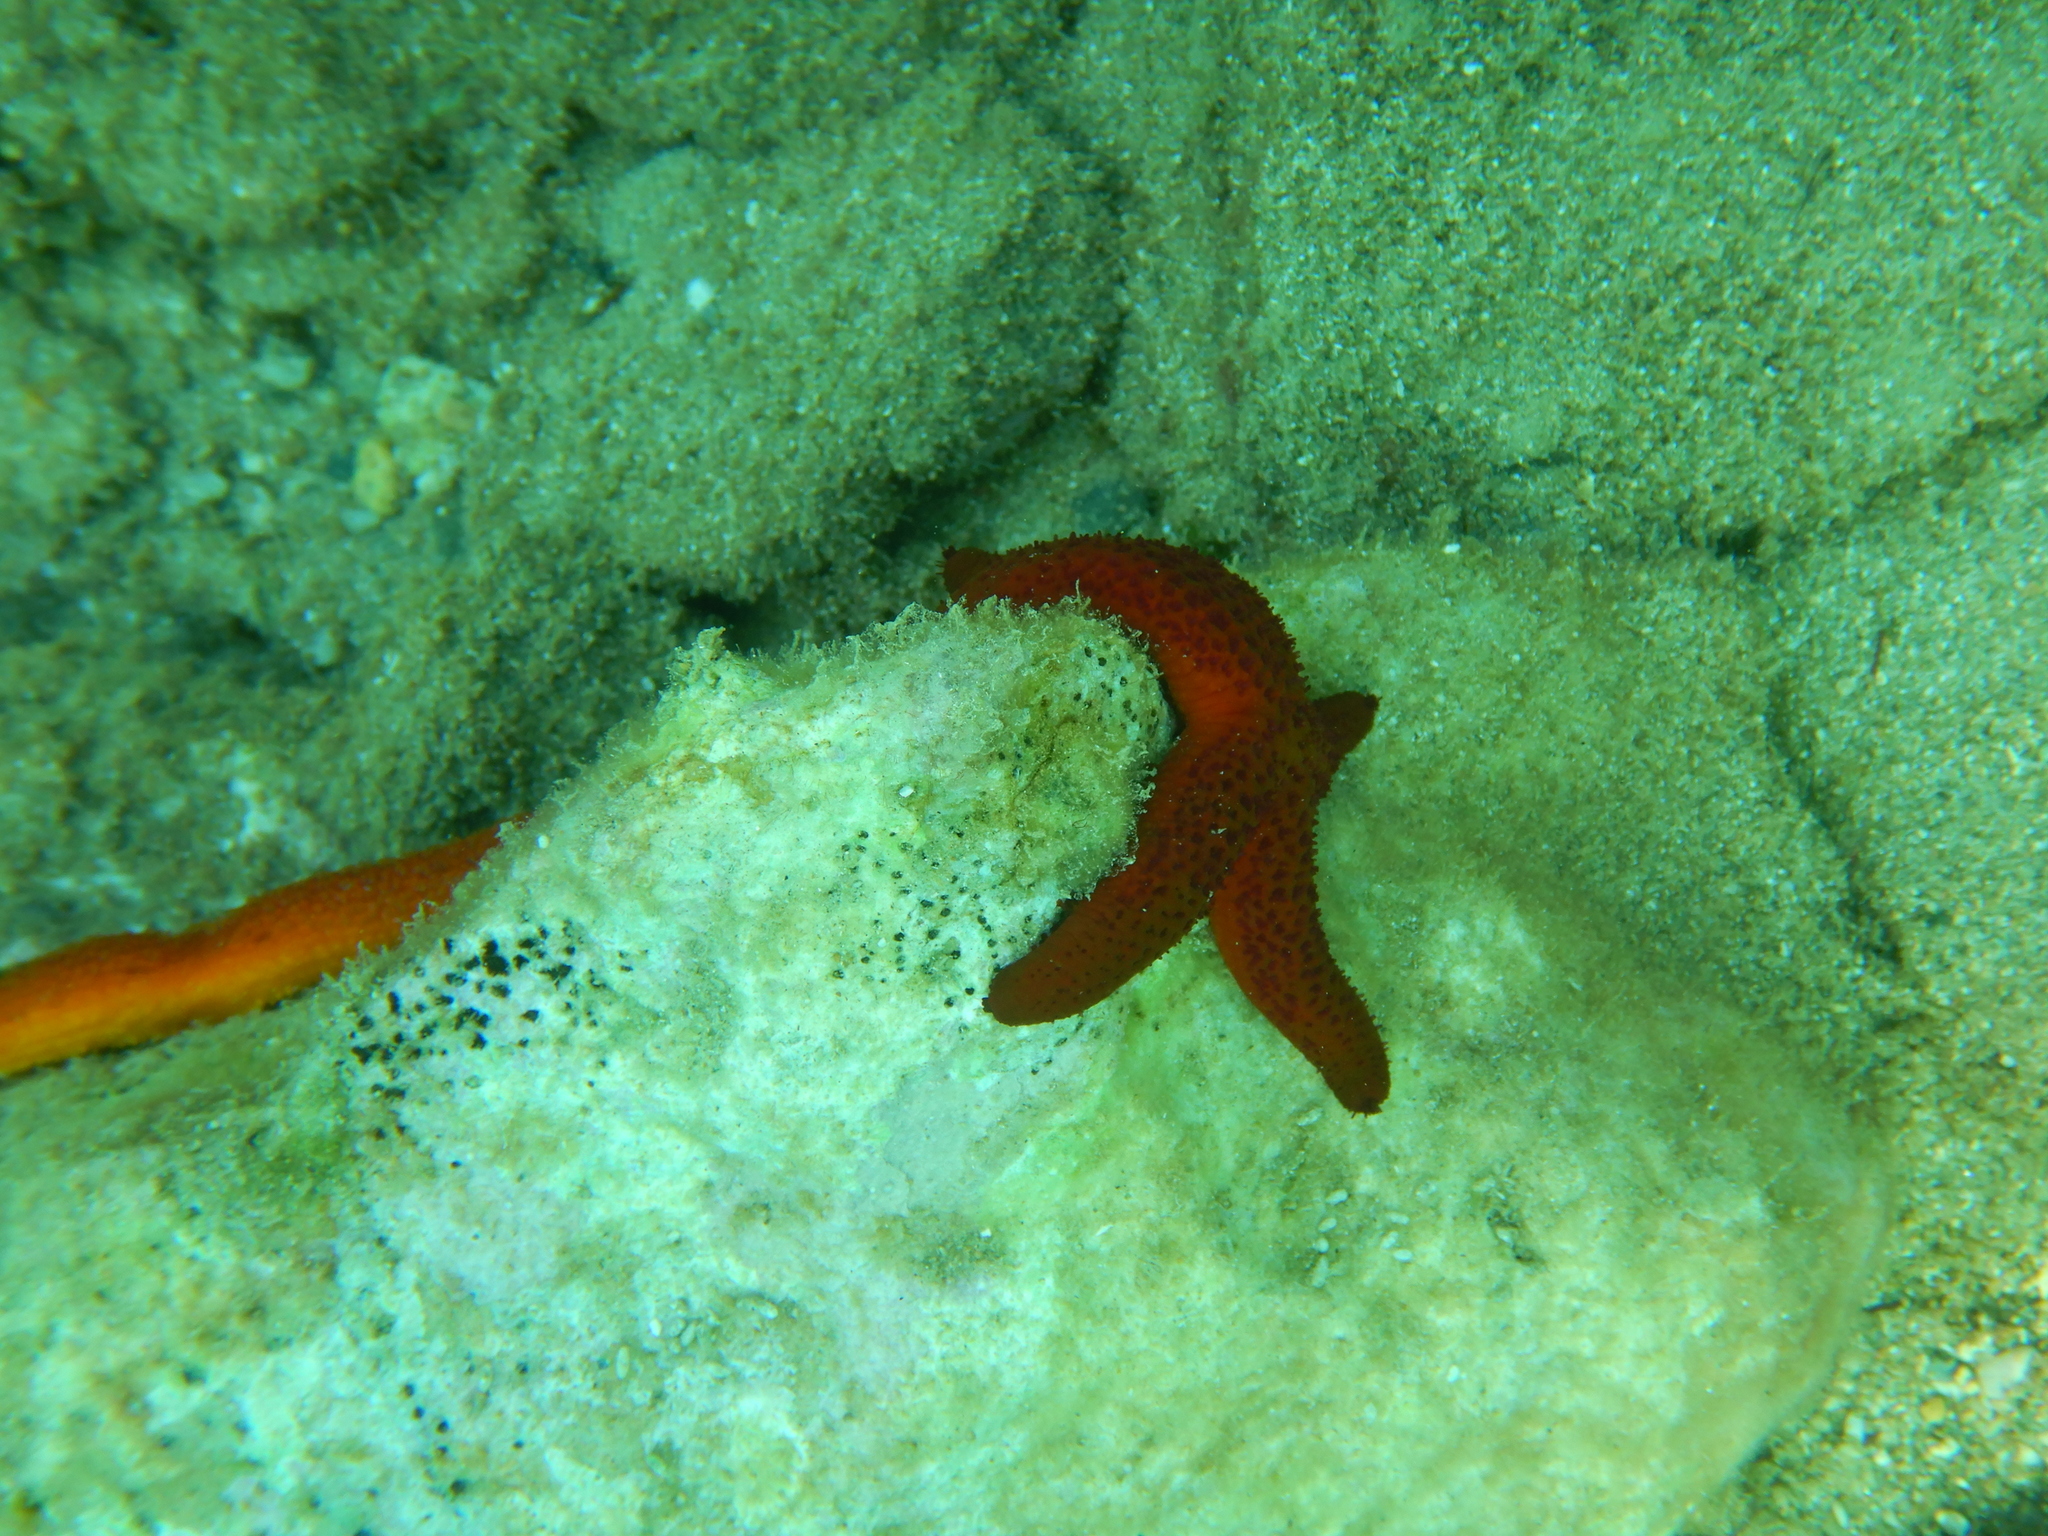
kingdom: Animalia
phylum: Echinodermata
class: Asteroidea
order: Spinulosida
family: Echinasteridae
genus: Echinaster
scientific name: Echinaster sepositus
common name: Red starfish
